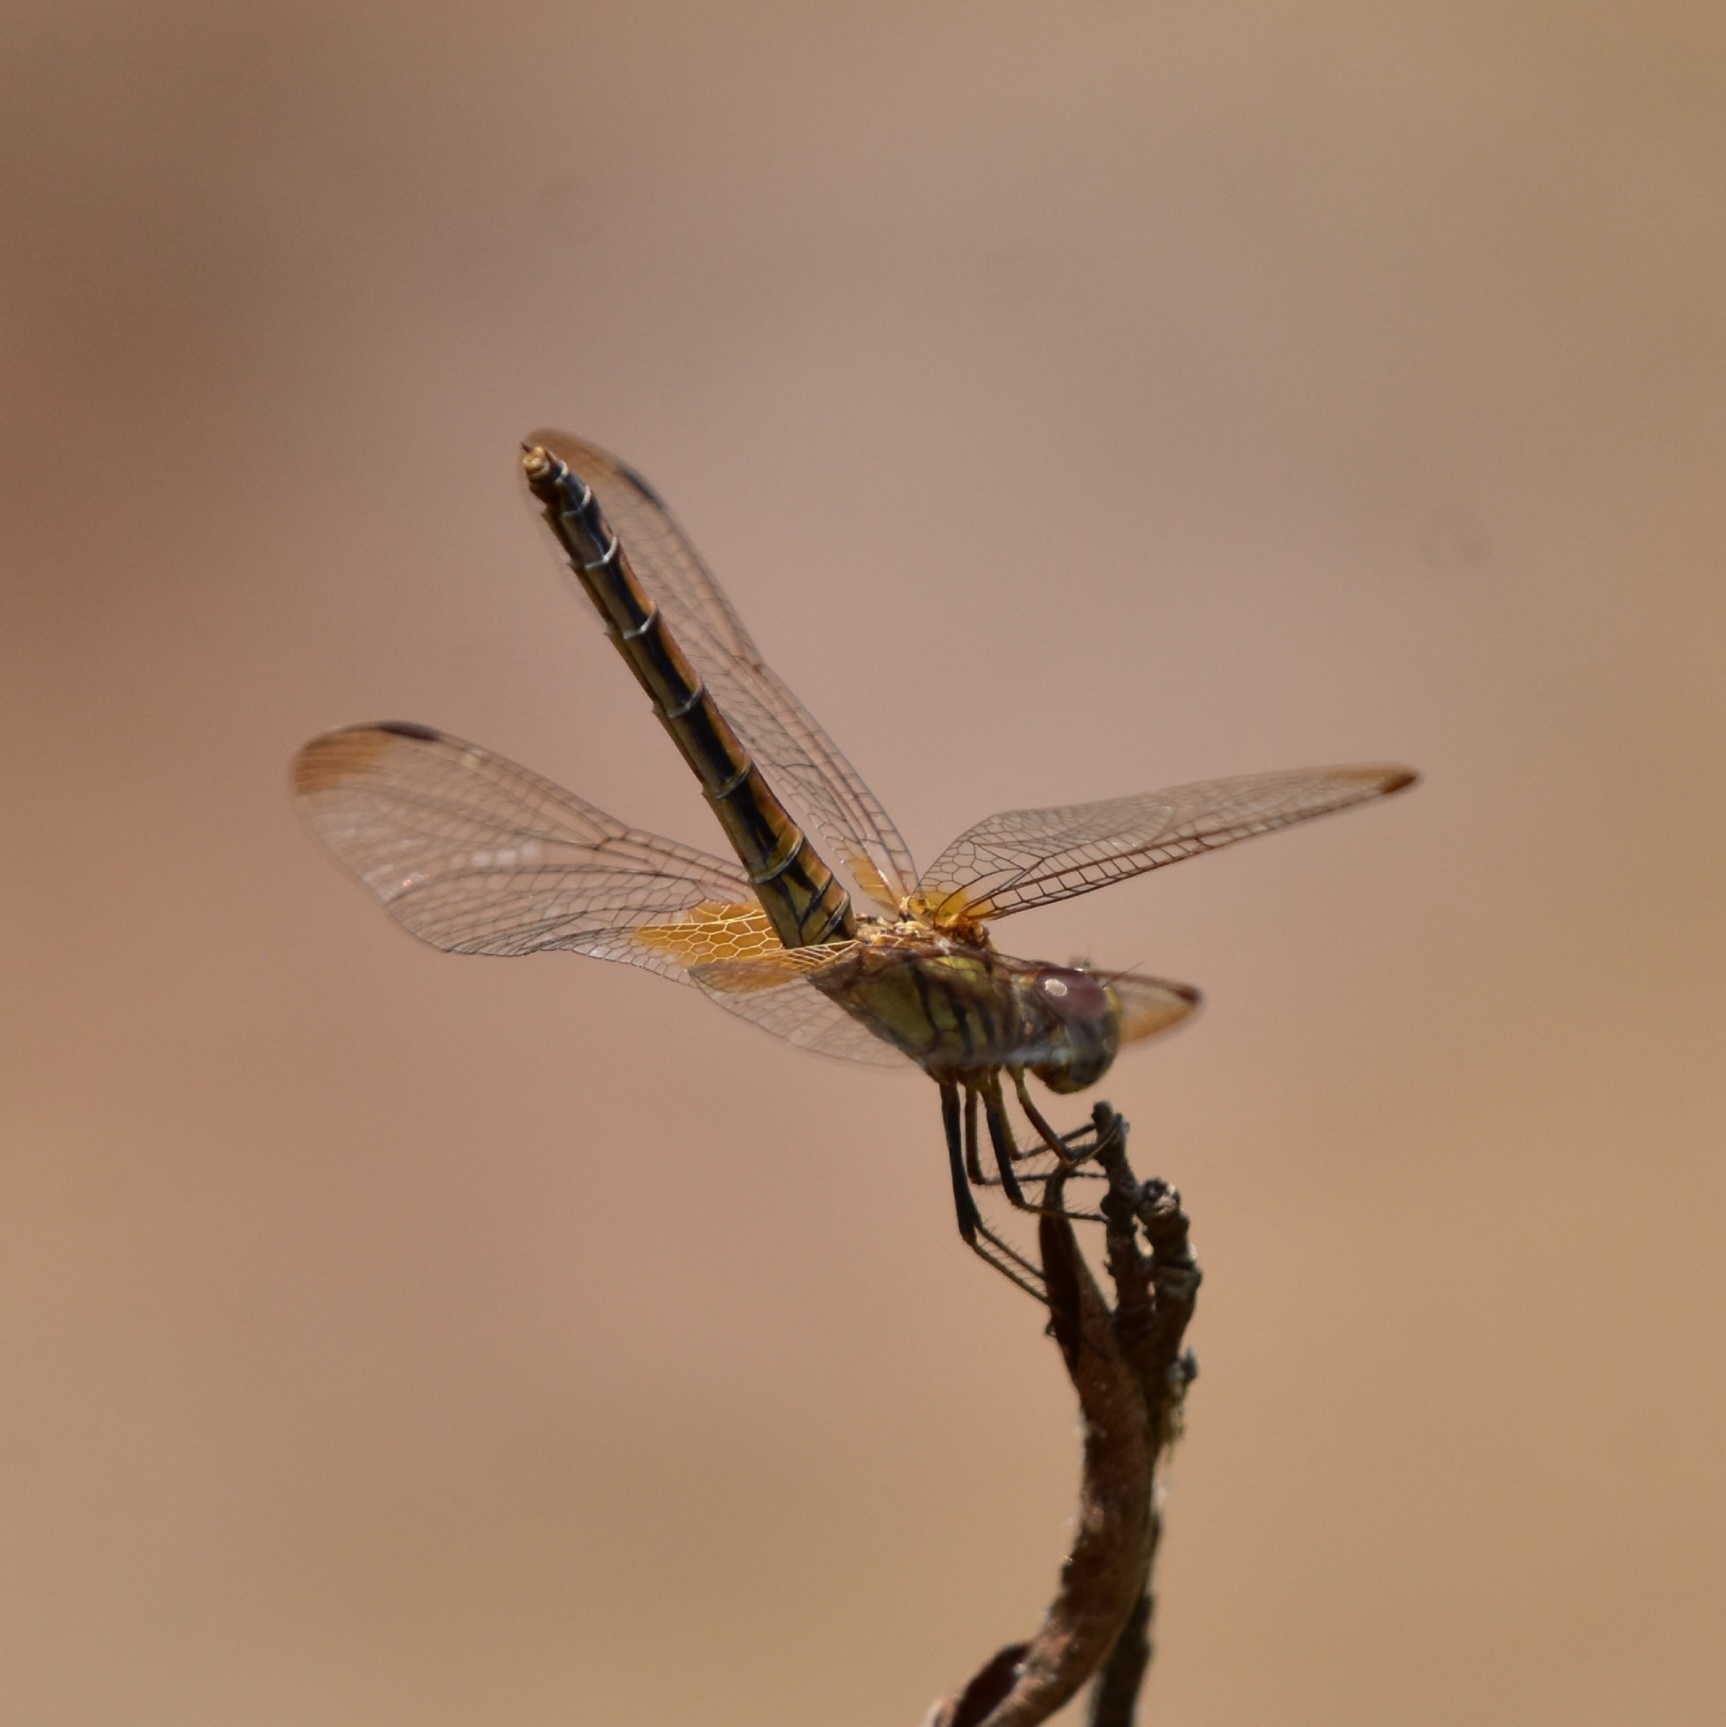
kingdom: Animalia
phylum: Arthropoda
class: Insecta
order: Odonata
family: Libellulidae
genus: Trithemis
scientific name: Trithemis aurora
